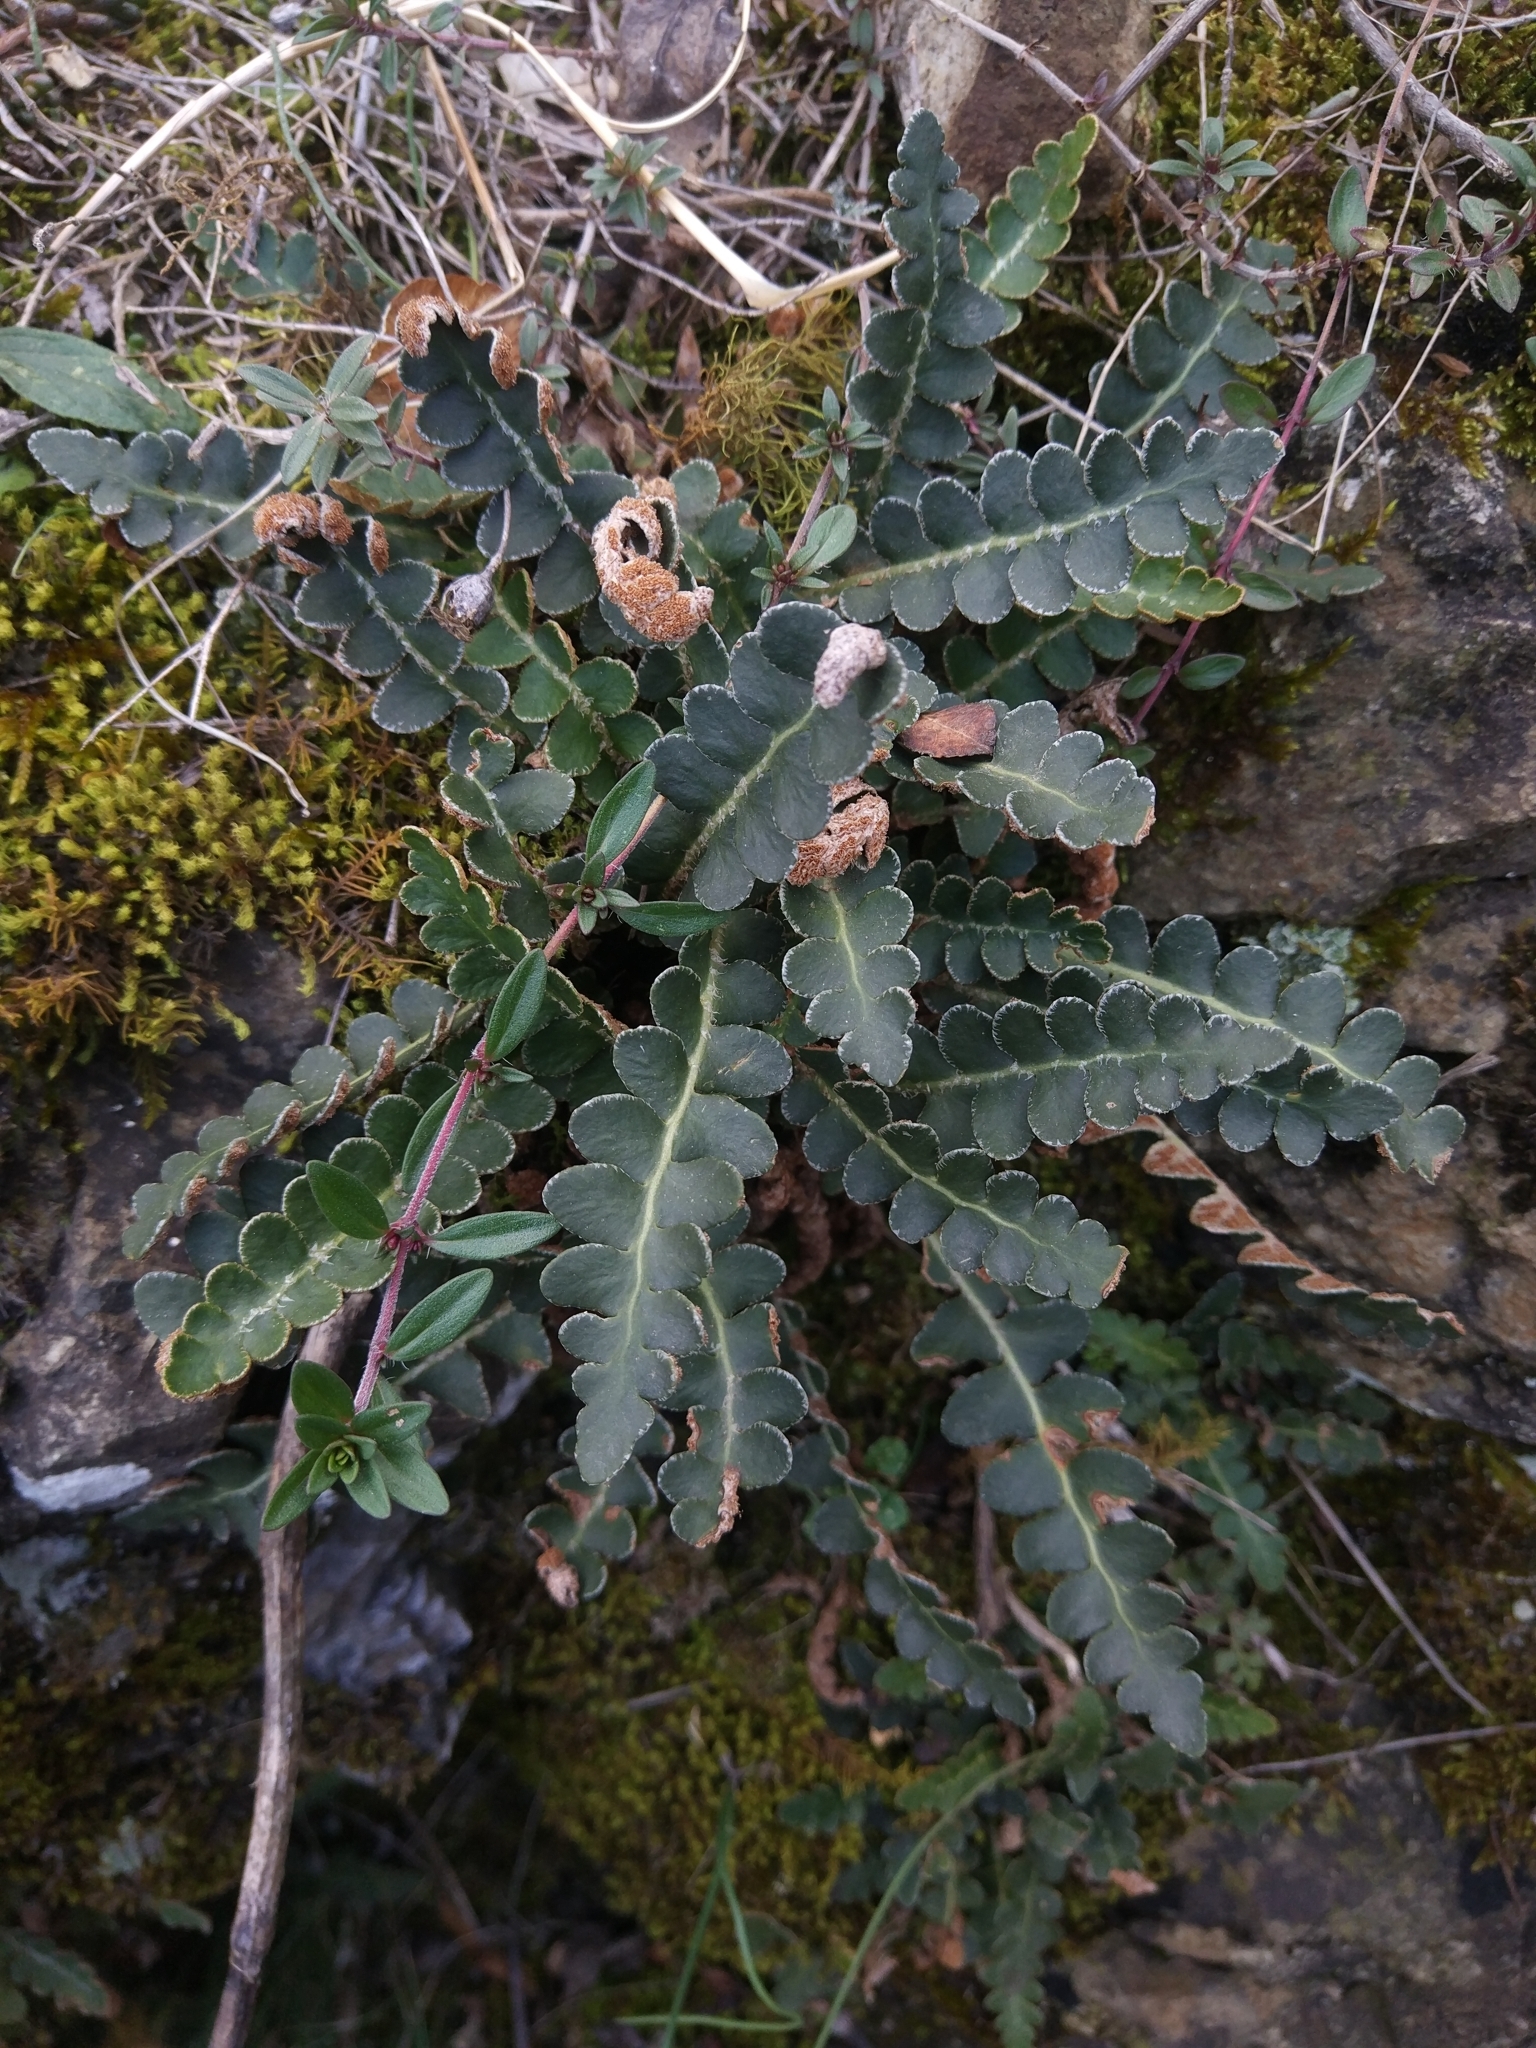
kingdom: Plantae
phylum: Tracheophyta
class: Polypodiopsida
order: Polypodiales
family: Aspleniaceae
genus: Asplenium
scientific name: Asplenium ceterach
